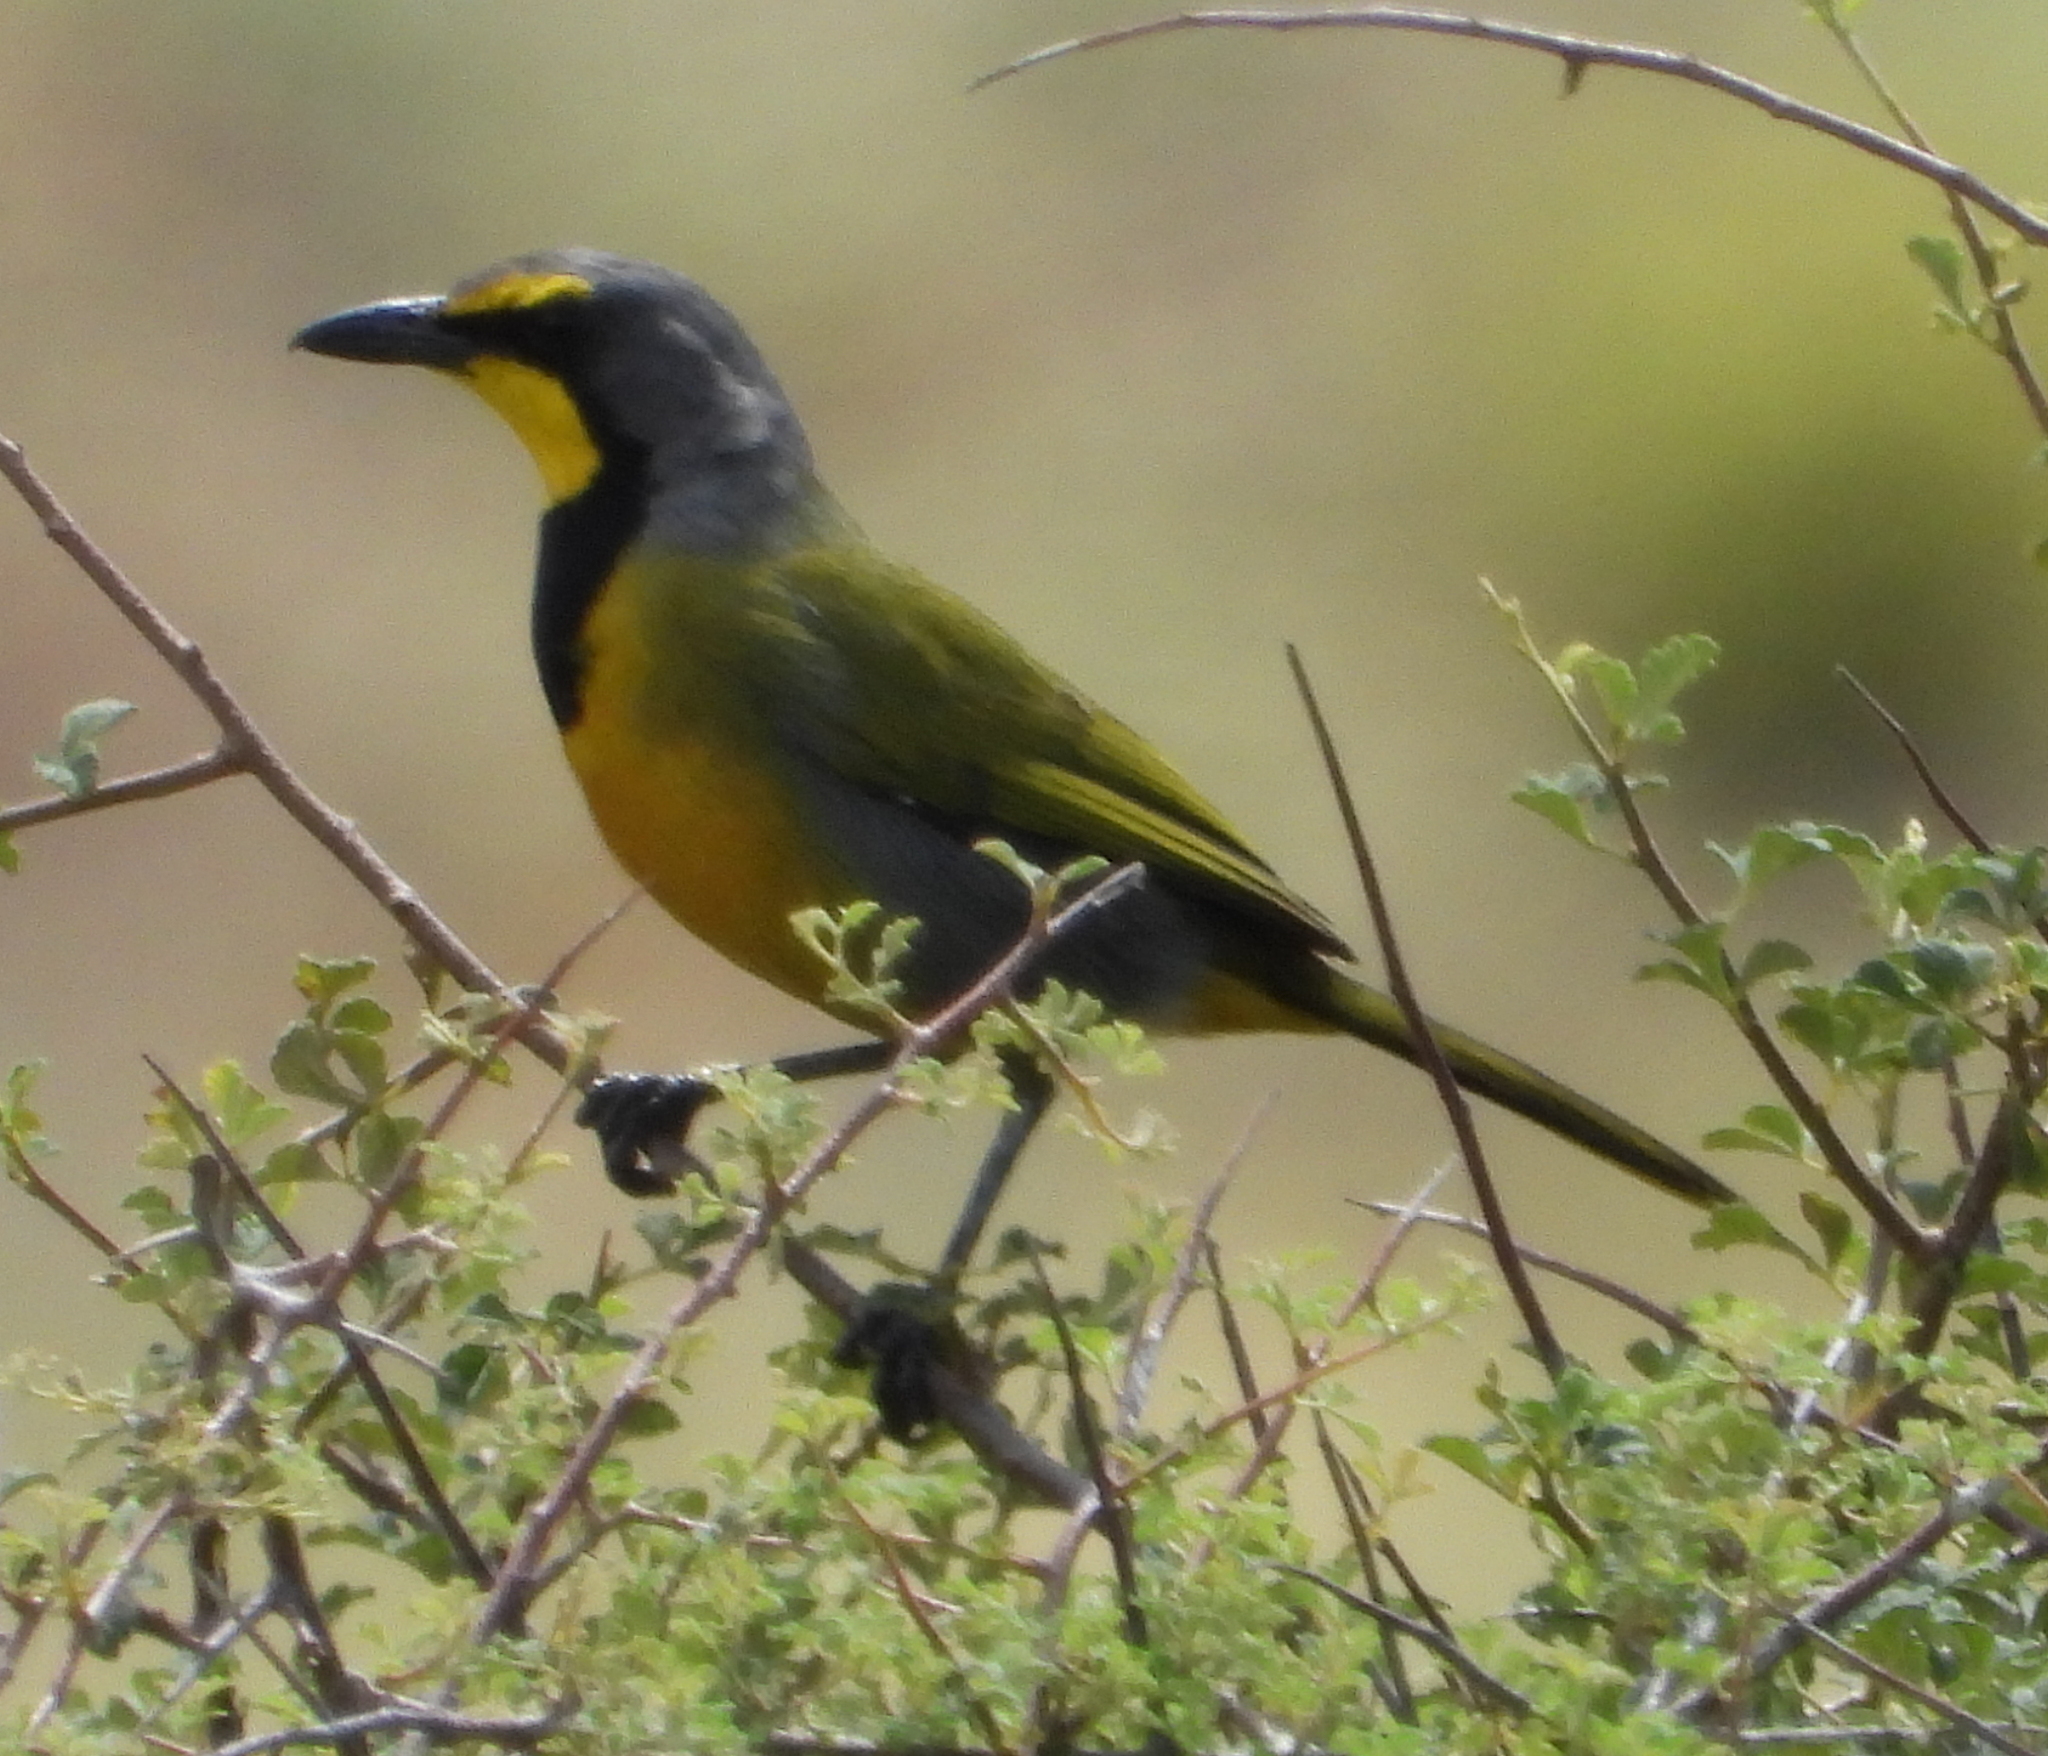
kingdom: Animalia
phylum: Chordata
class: Aves
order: Passeriformes
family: Malaconotidae
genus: Telophorus
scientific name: Telophorus zeylonus
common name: Bokmakierie
